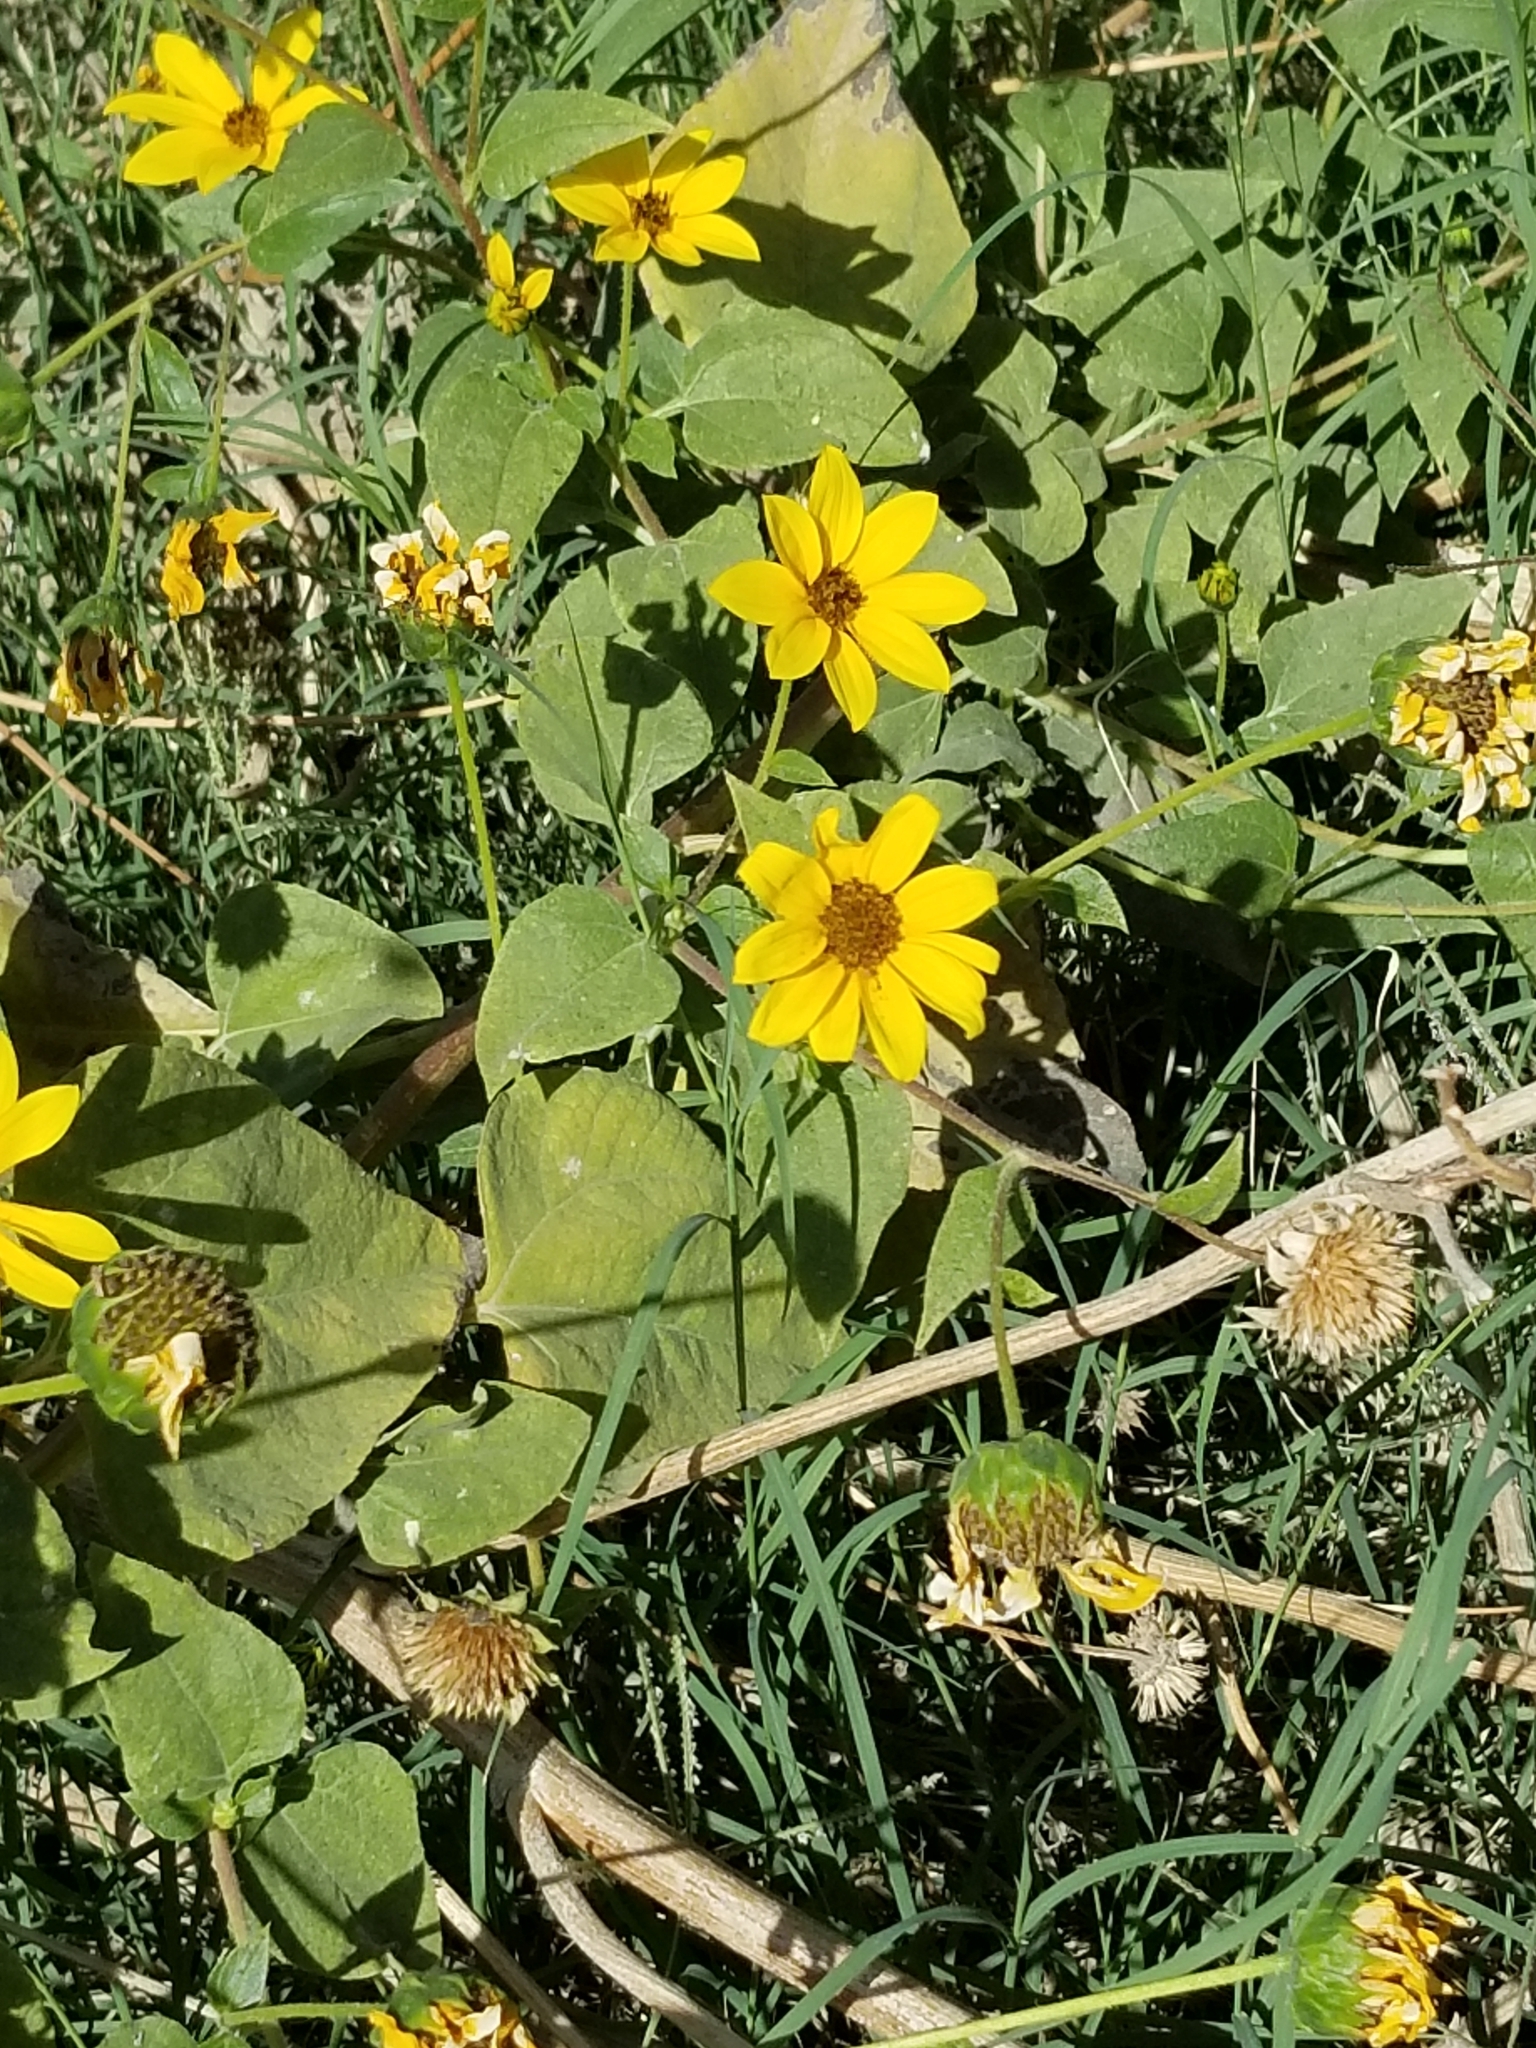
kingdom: Plantae
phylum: Tracheophyta
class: Magnoliopsida
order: Asterales
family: Asteraceae
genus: Helianthus
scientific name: Helianthus annuus
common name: Sunflower
